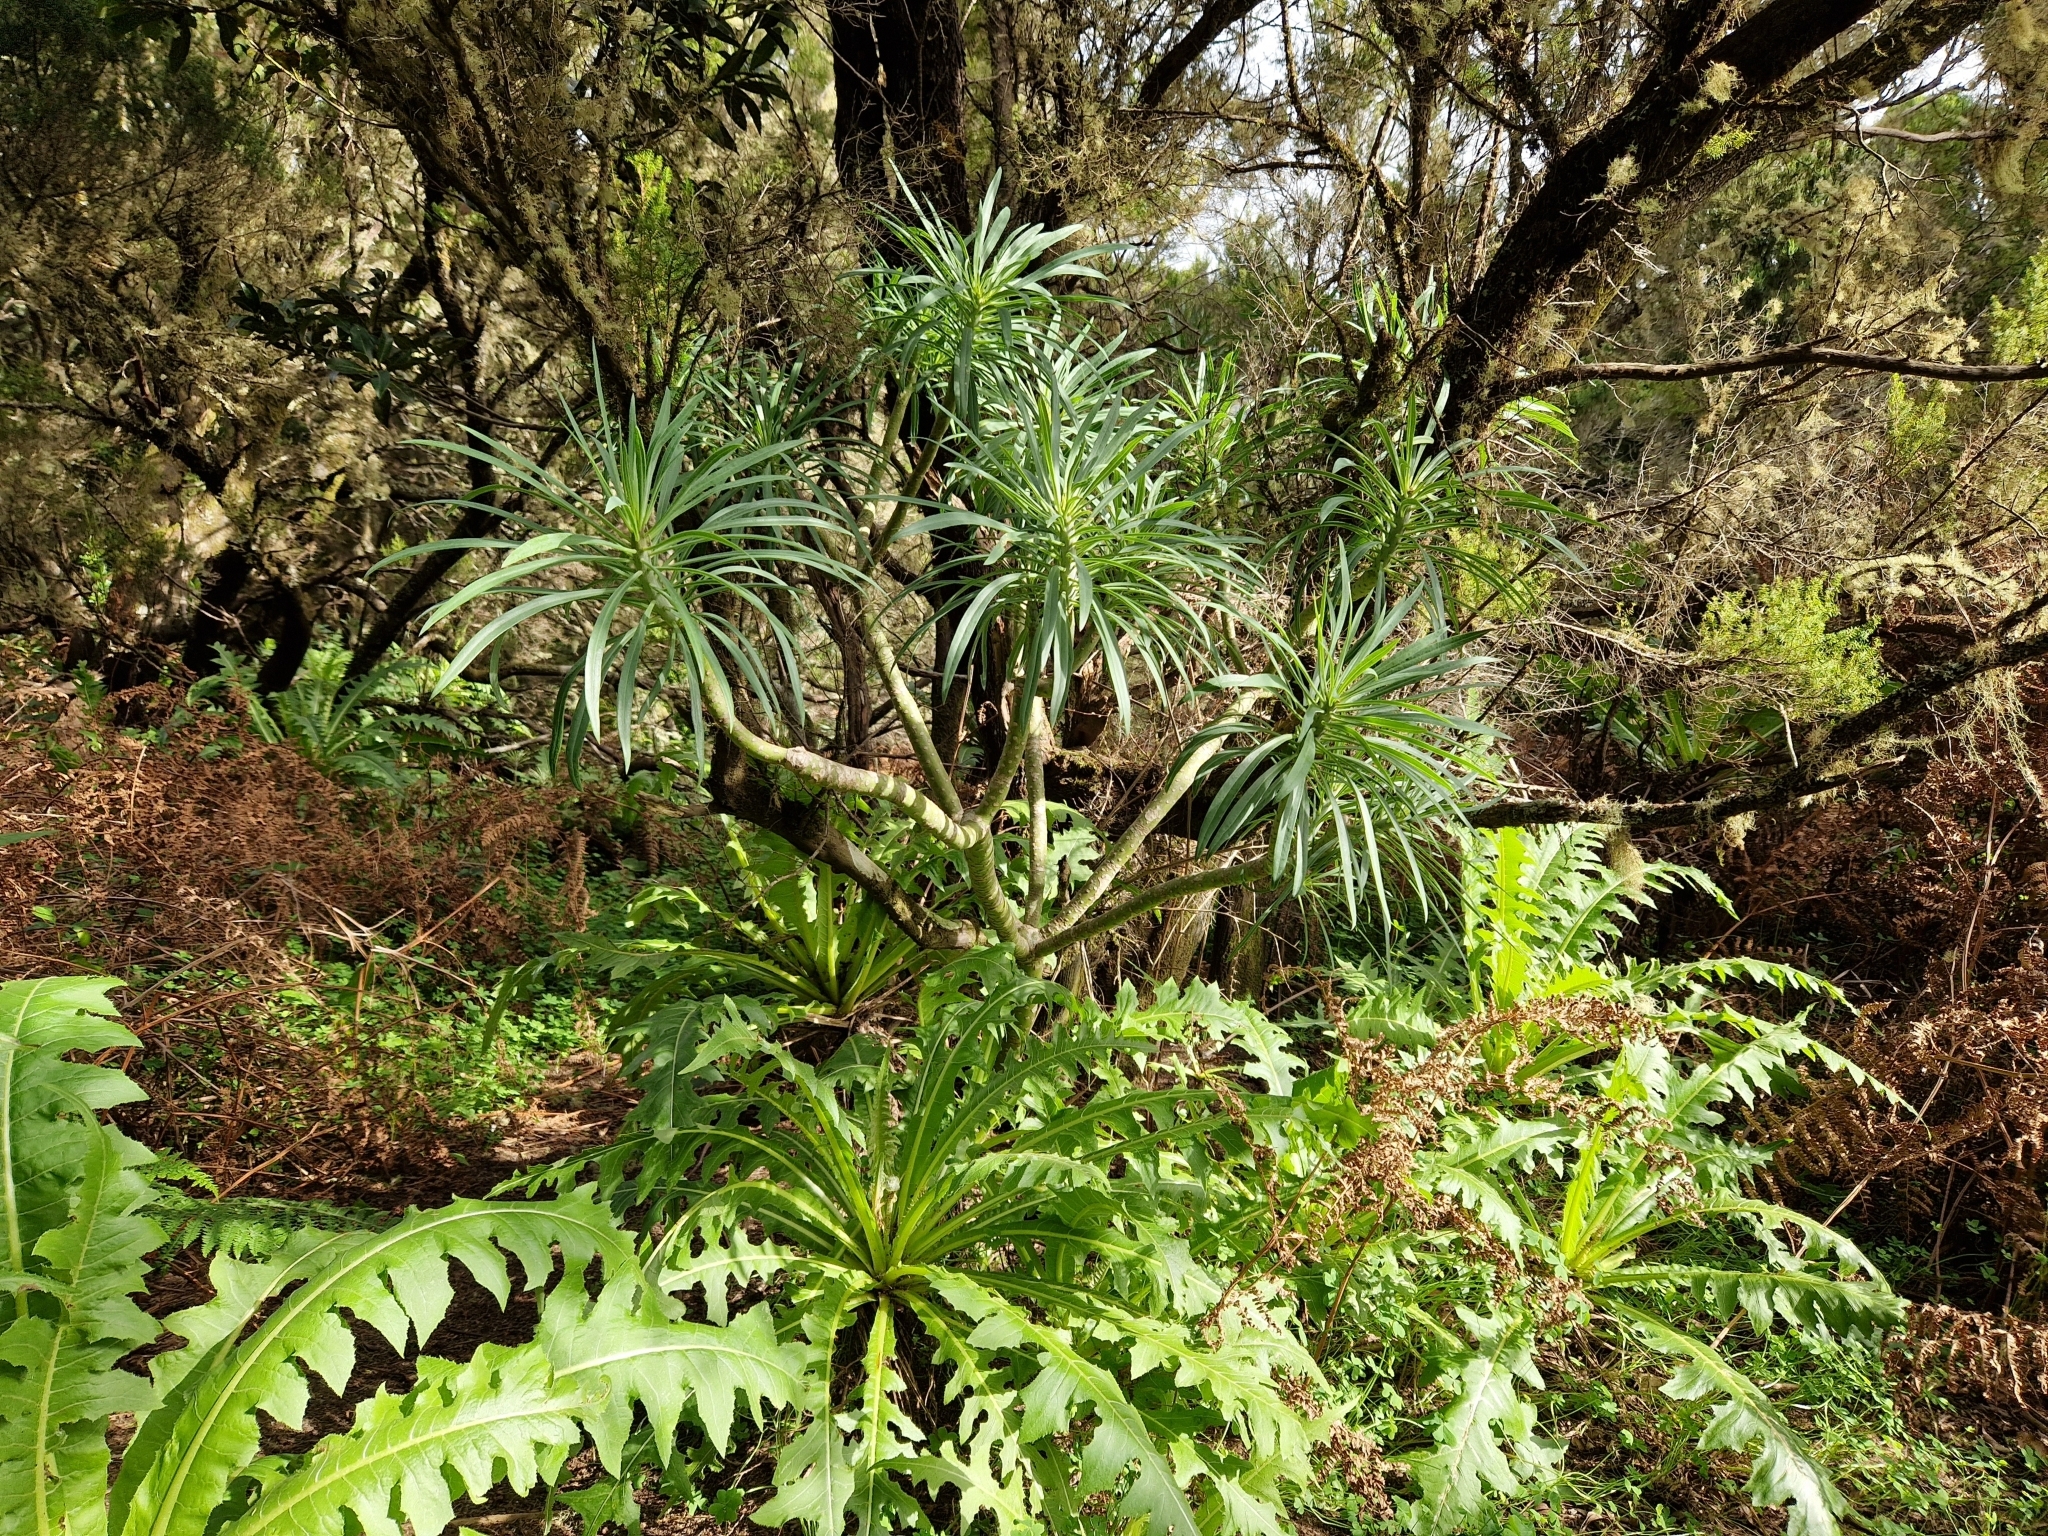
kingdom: Plantae
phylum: Tracheophyta
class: Magnoliopsida
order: Asterales
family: Asteraceae
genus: Kleinia
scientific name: Kleinia neriifolia
